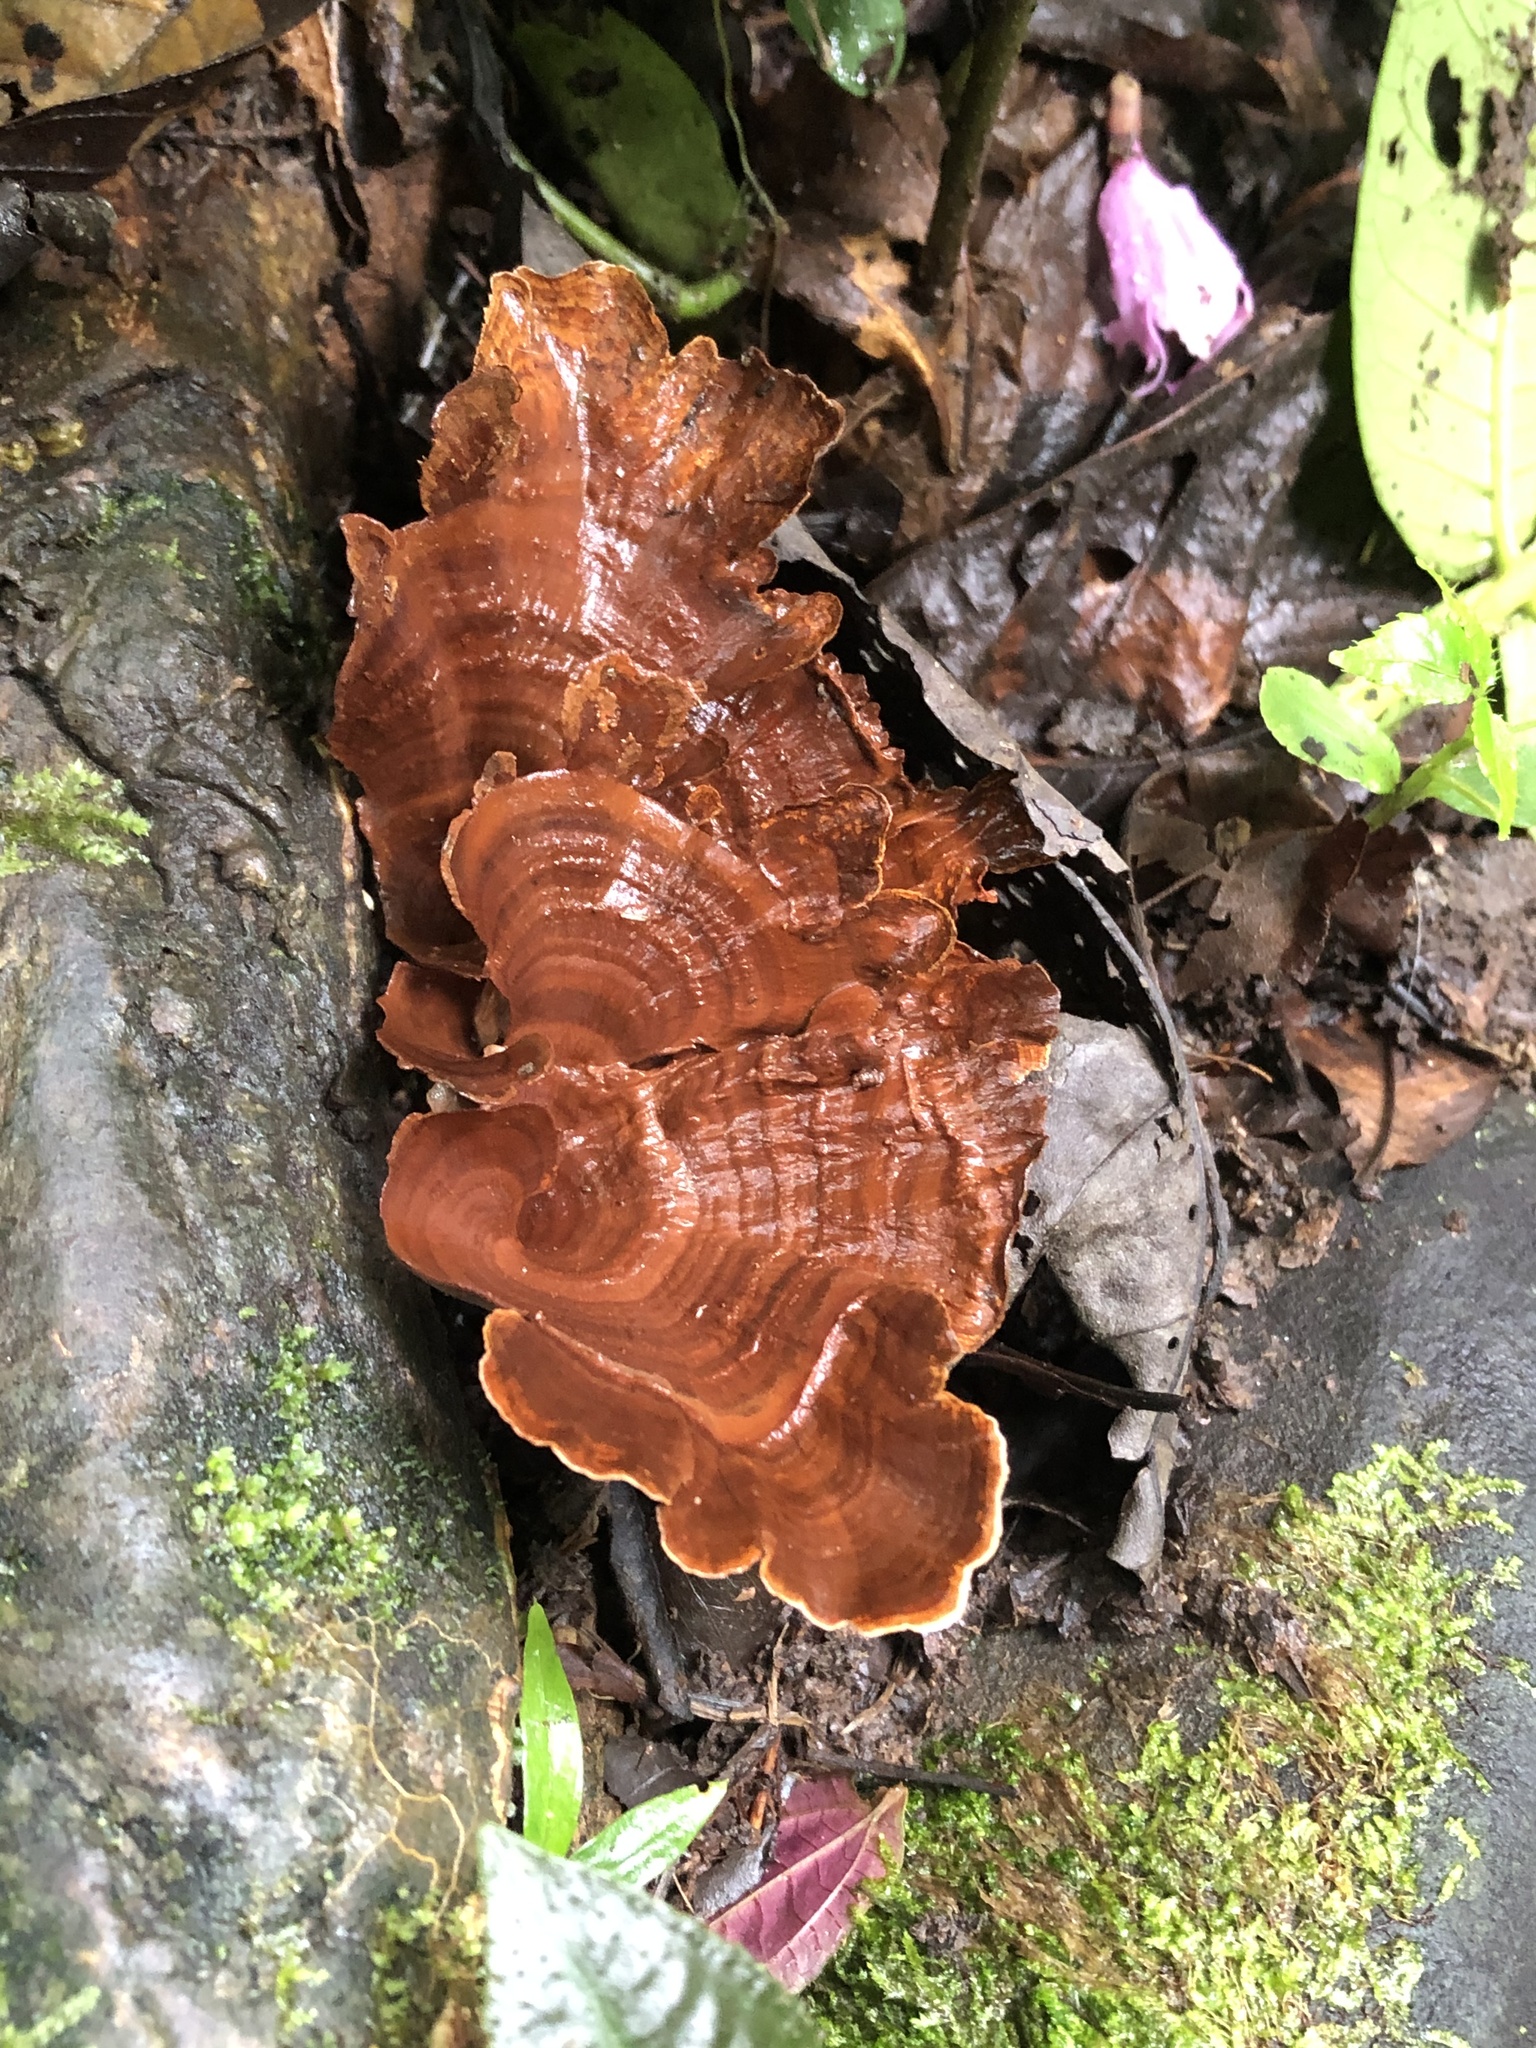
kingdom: Fungi
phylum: Basidiomycota
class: Agaricomycetes
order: Polyporales
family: Polyporaceae
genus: Microporus
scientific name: Microporus xanthopus
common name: Yellow-stemmed micropore
